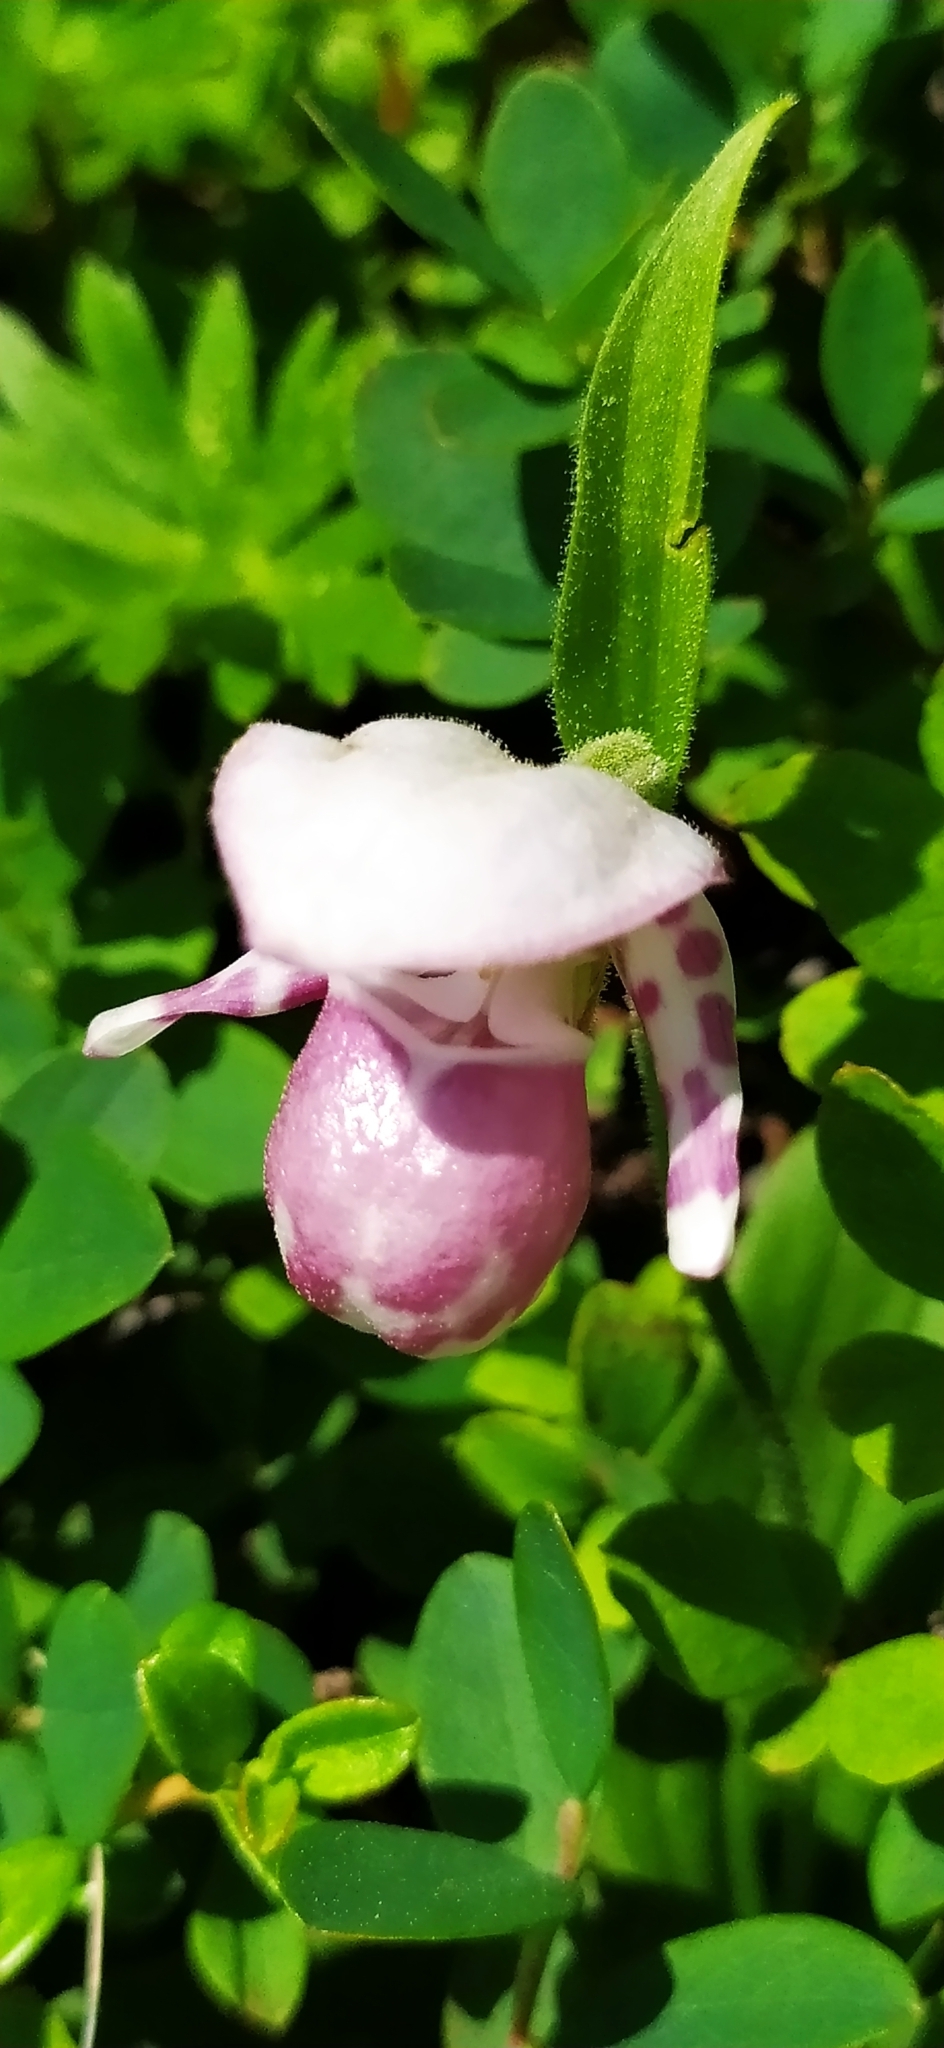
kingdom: Plantae
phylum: Tracheophyta
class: Liliopsida
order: Asparagales
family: Orchidaceae
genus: Cypripedium
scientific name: Cypripedium guttatum
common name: Pink lady slipper
